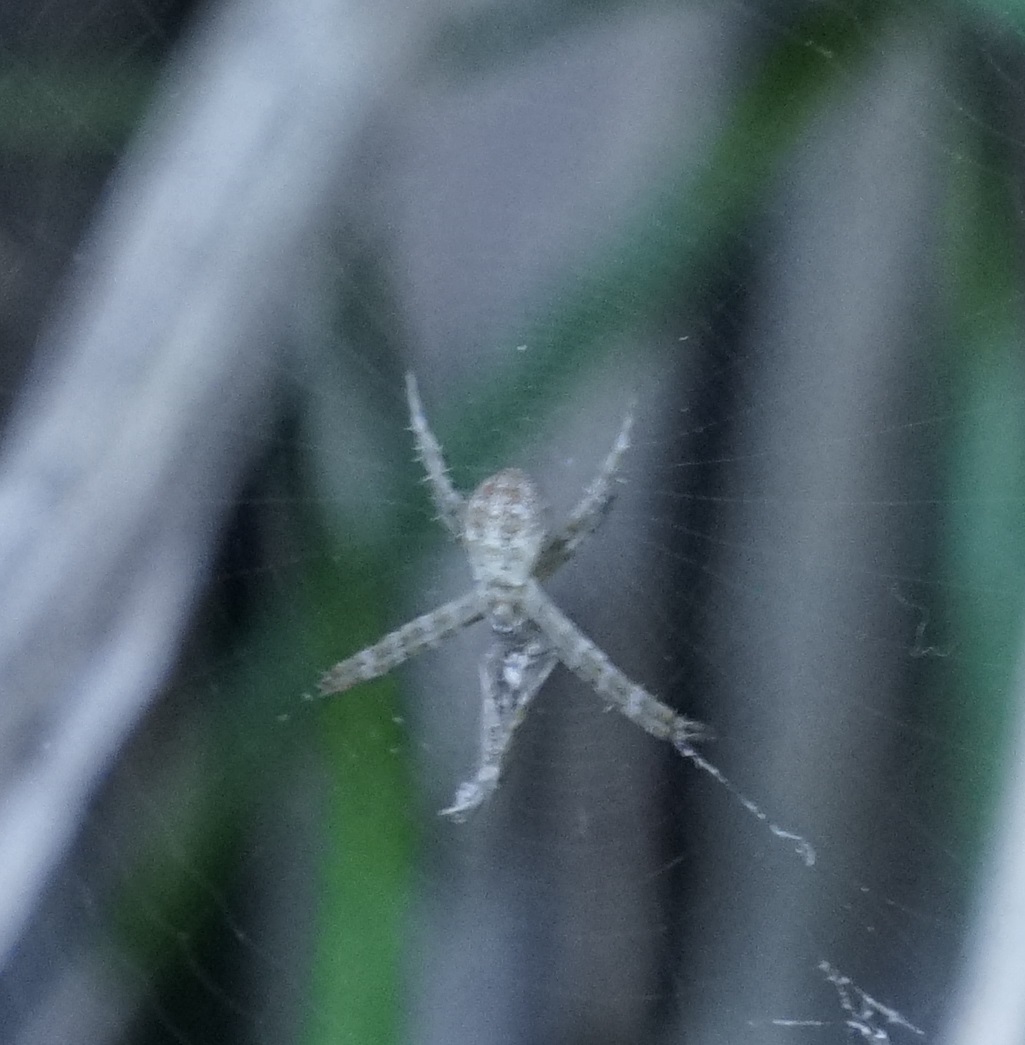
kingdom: Animalia
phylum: Arthropoda
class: Arachnida
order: Araneae
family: Araneidae
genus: Argiope
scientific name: Argiope keyserlingi
